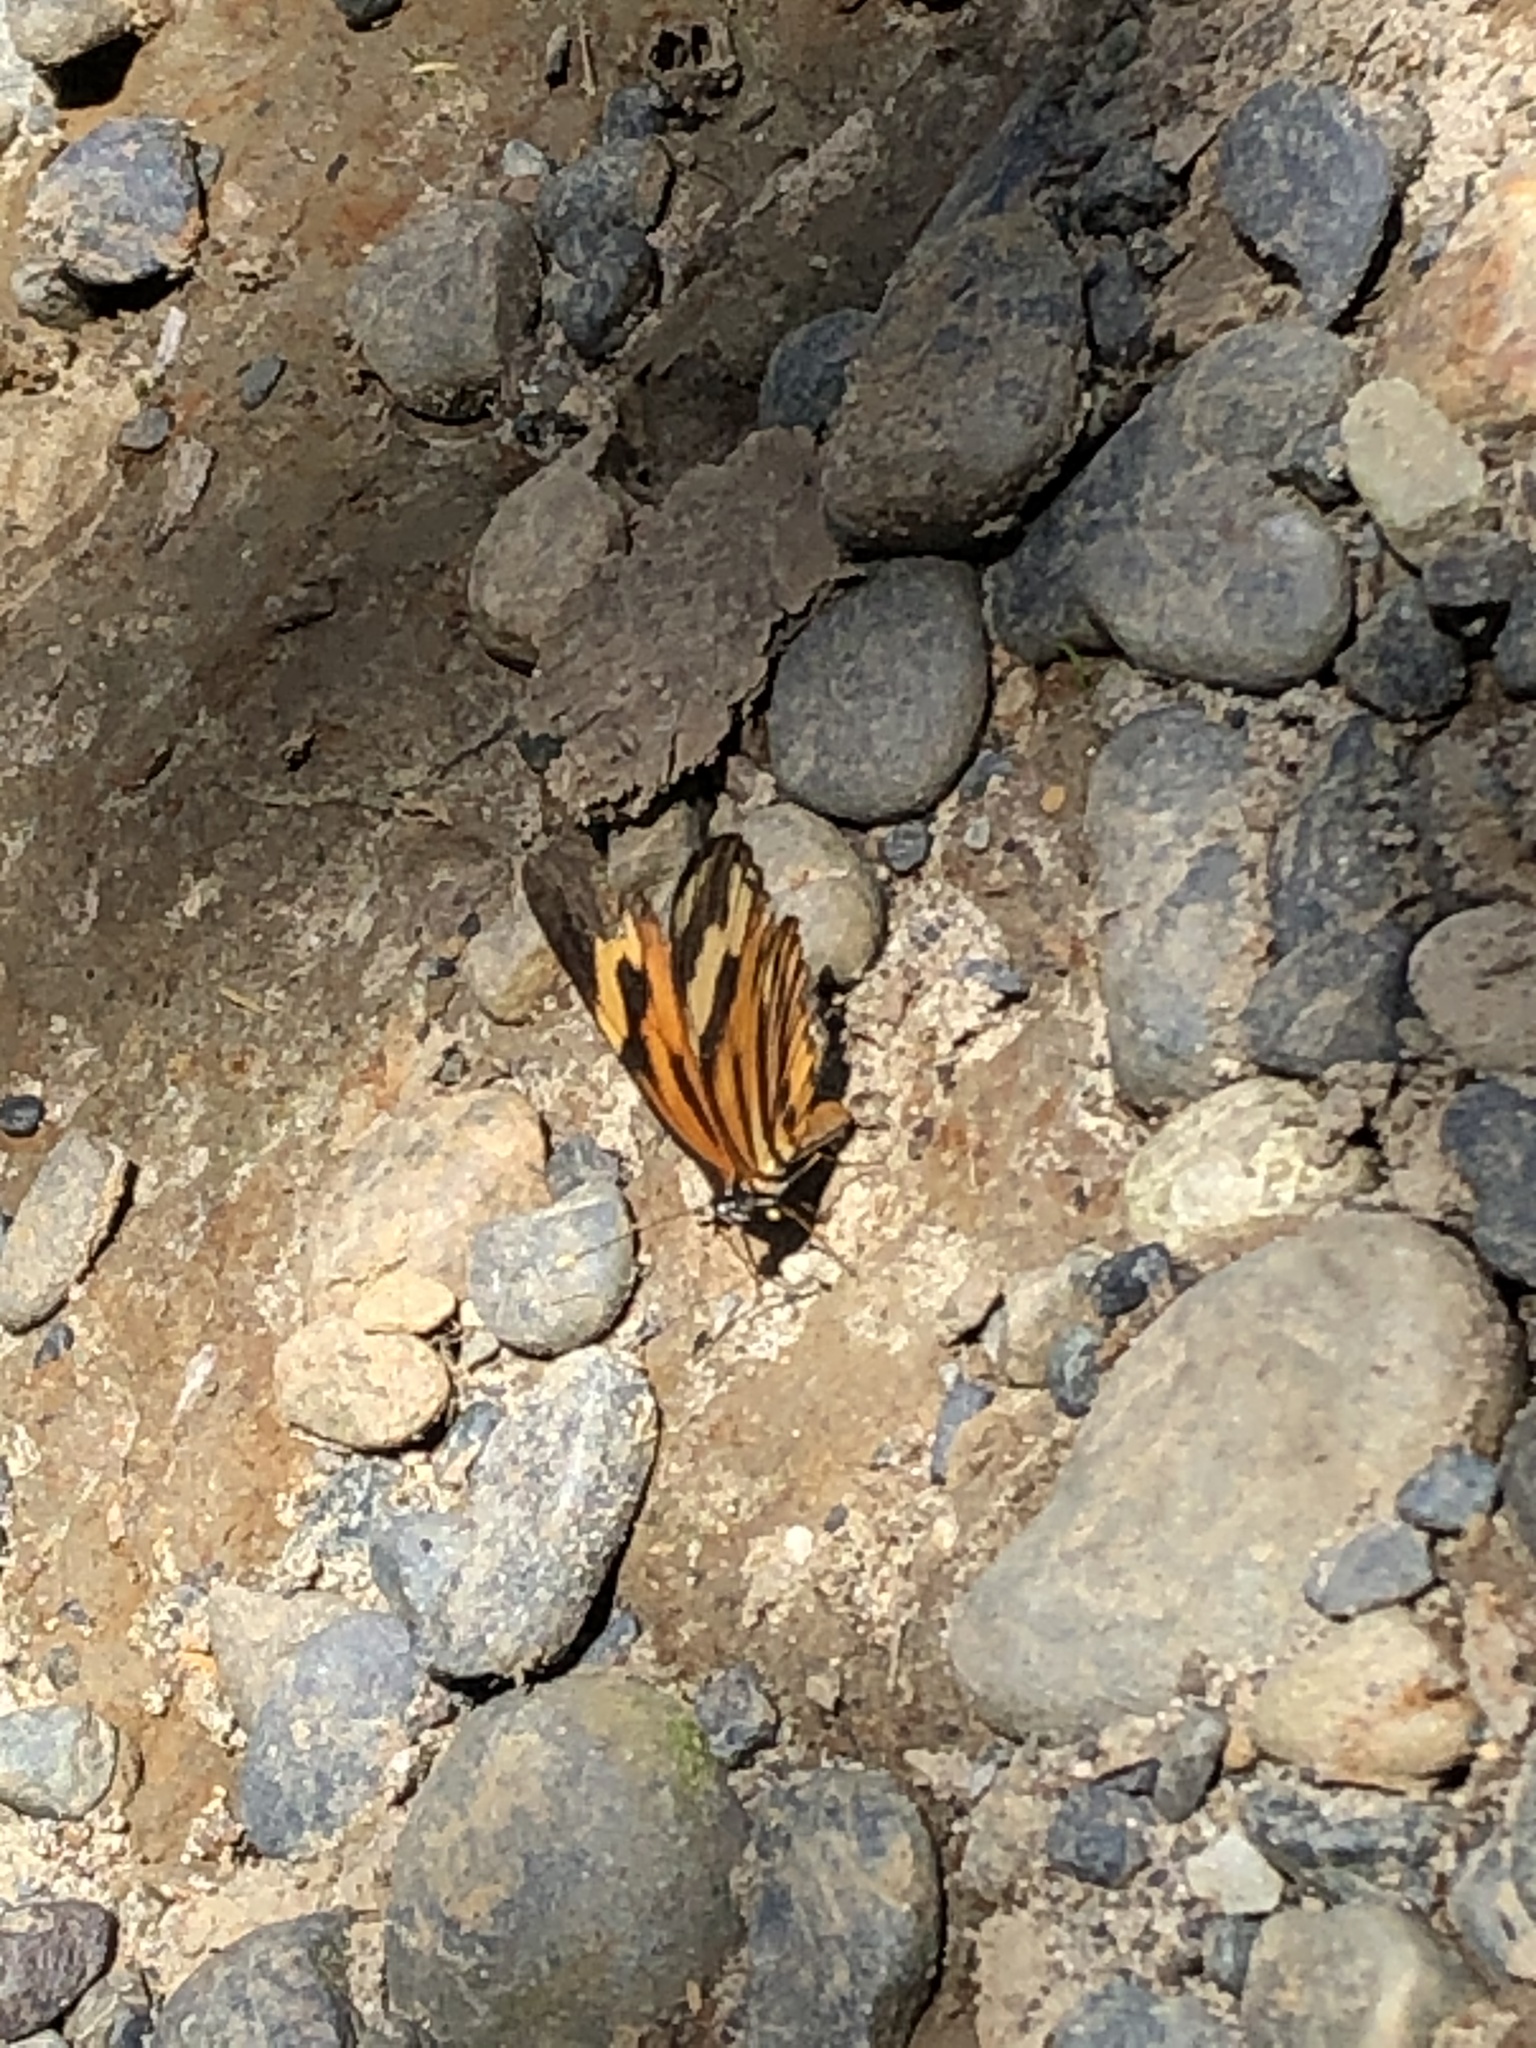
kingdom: Animalia
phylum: Arthropoda
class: Insecta
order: Lepidoptera
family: Nymphalidae
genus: Eresia
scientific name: Eresia eunice
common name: Tiger crescent
